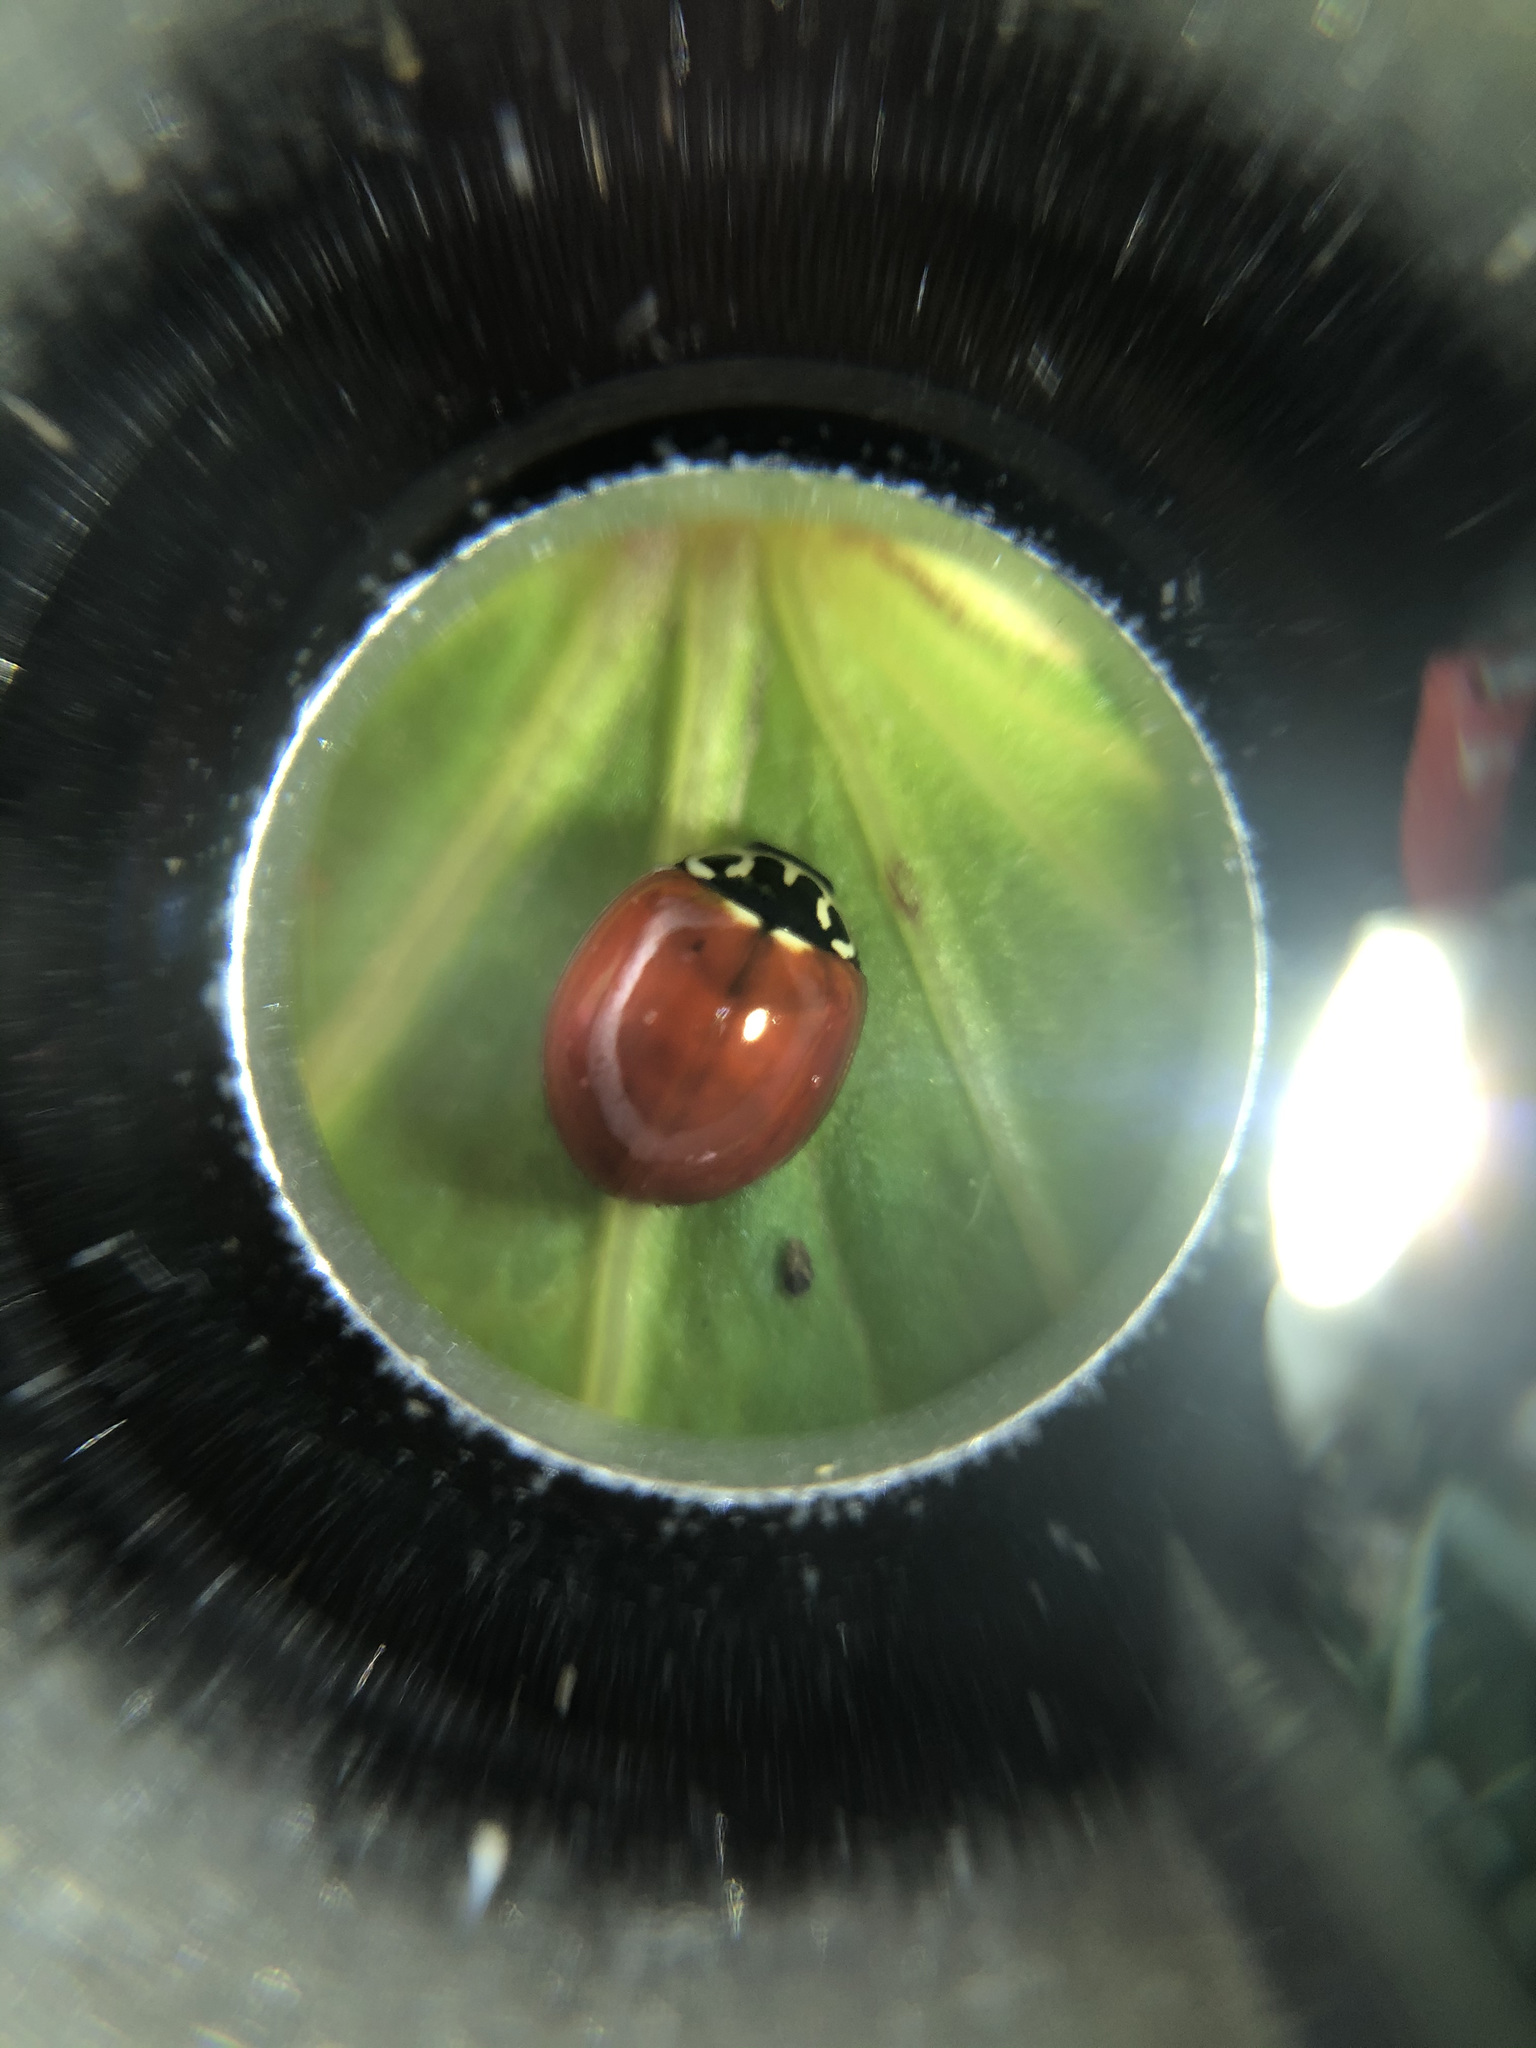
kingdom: Animalia
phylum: Arthropoda
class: Insecta
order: Coleoptera
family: Coccinellidae
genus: Cycloneda
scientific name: Cycloneda polita
